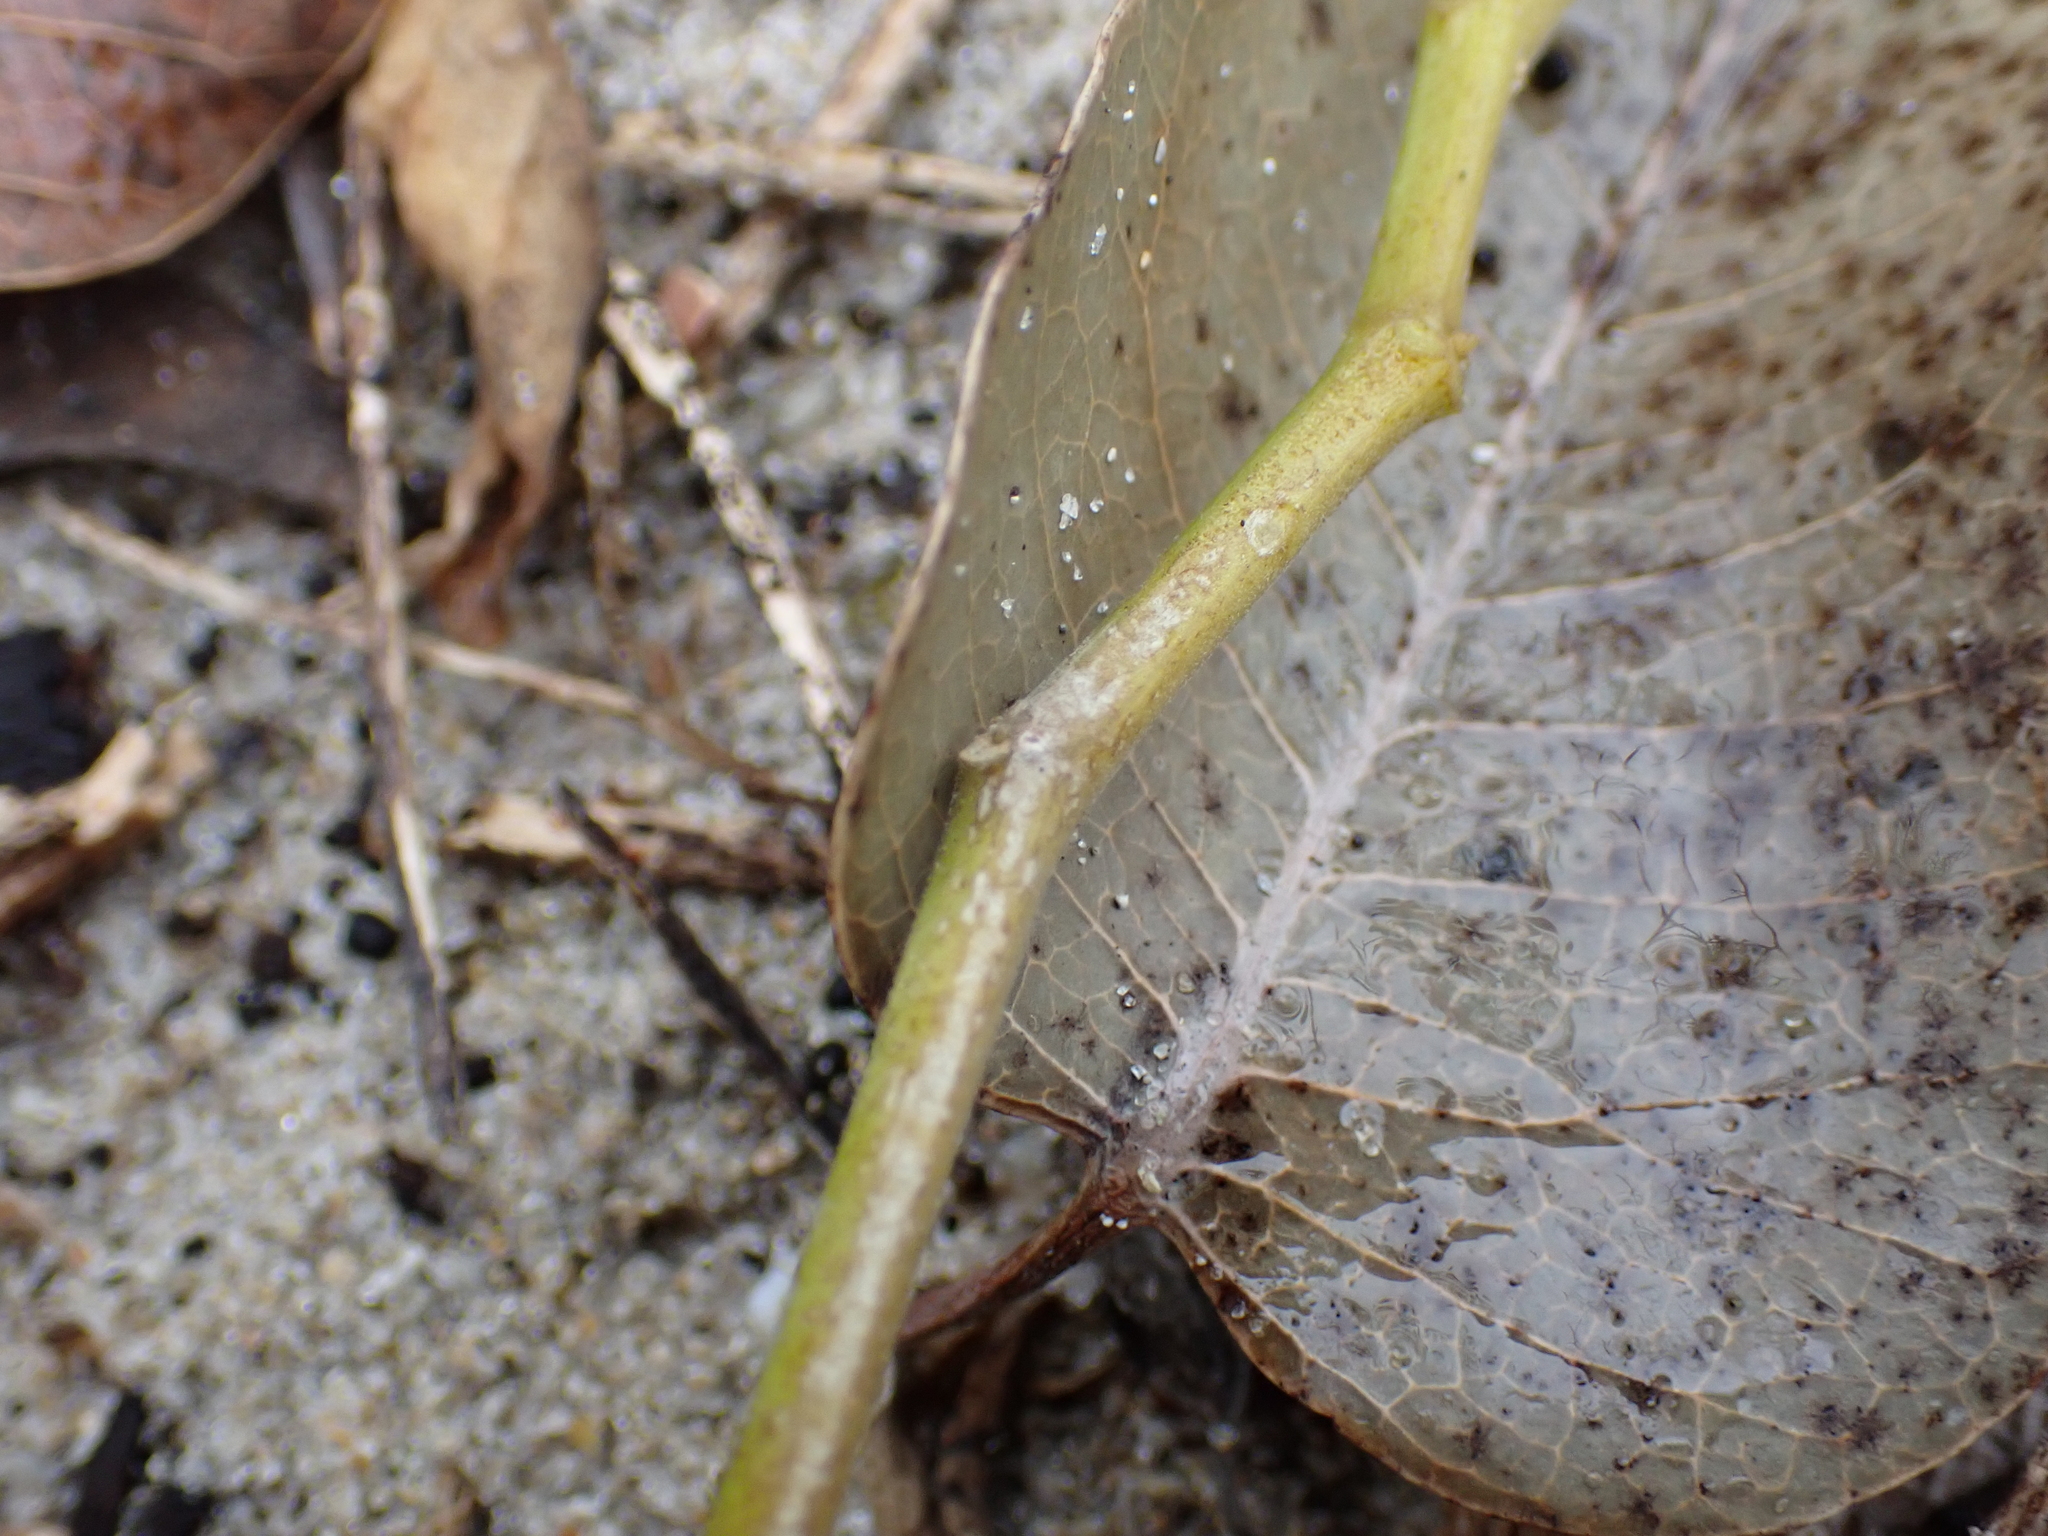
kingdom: Plantae
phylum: Tracheophyta
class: Magnoliopsida
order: Solanales
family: Convolvulaceae
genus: Ipomoea
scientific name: Ipomoea pes-caprae
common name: Beach morning glory
